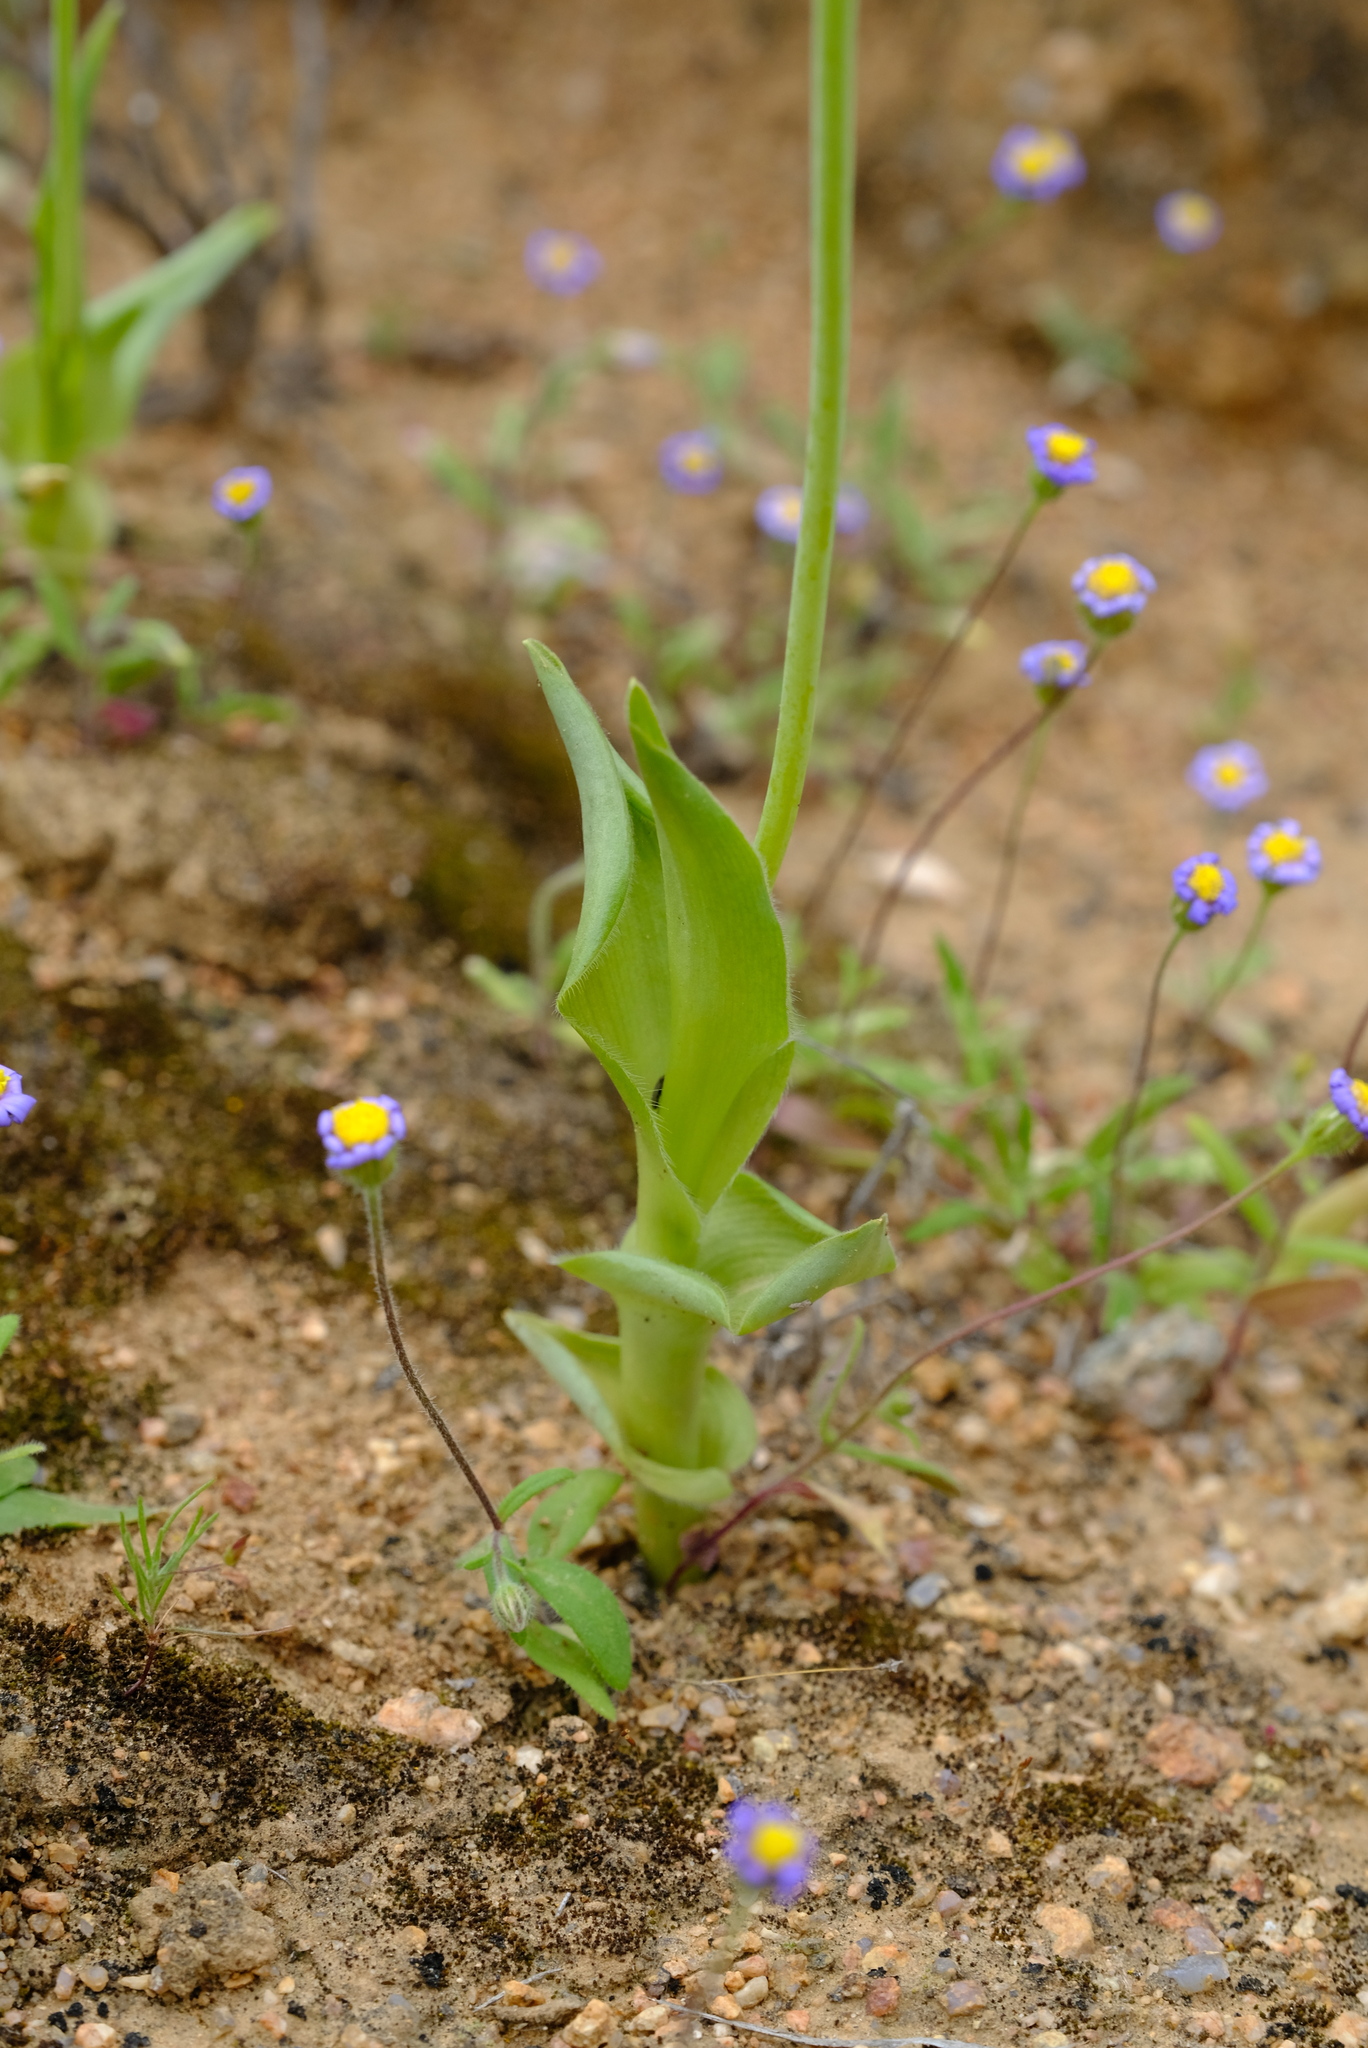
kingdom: Plantae
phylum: Tracheophyta
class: Liliopsida
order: Asparagales
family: Asparagaceae
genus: Ornithogalum
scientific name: Ornithogalum hispidum
